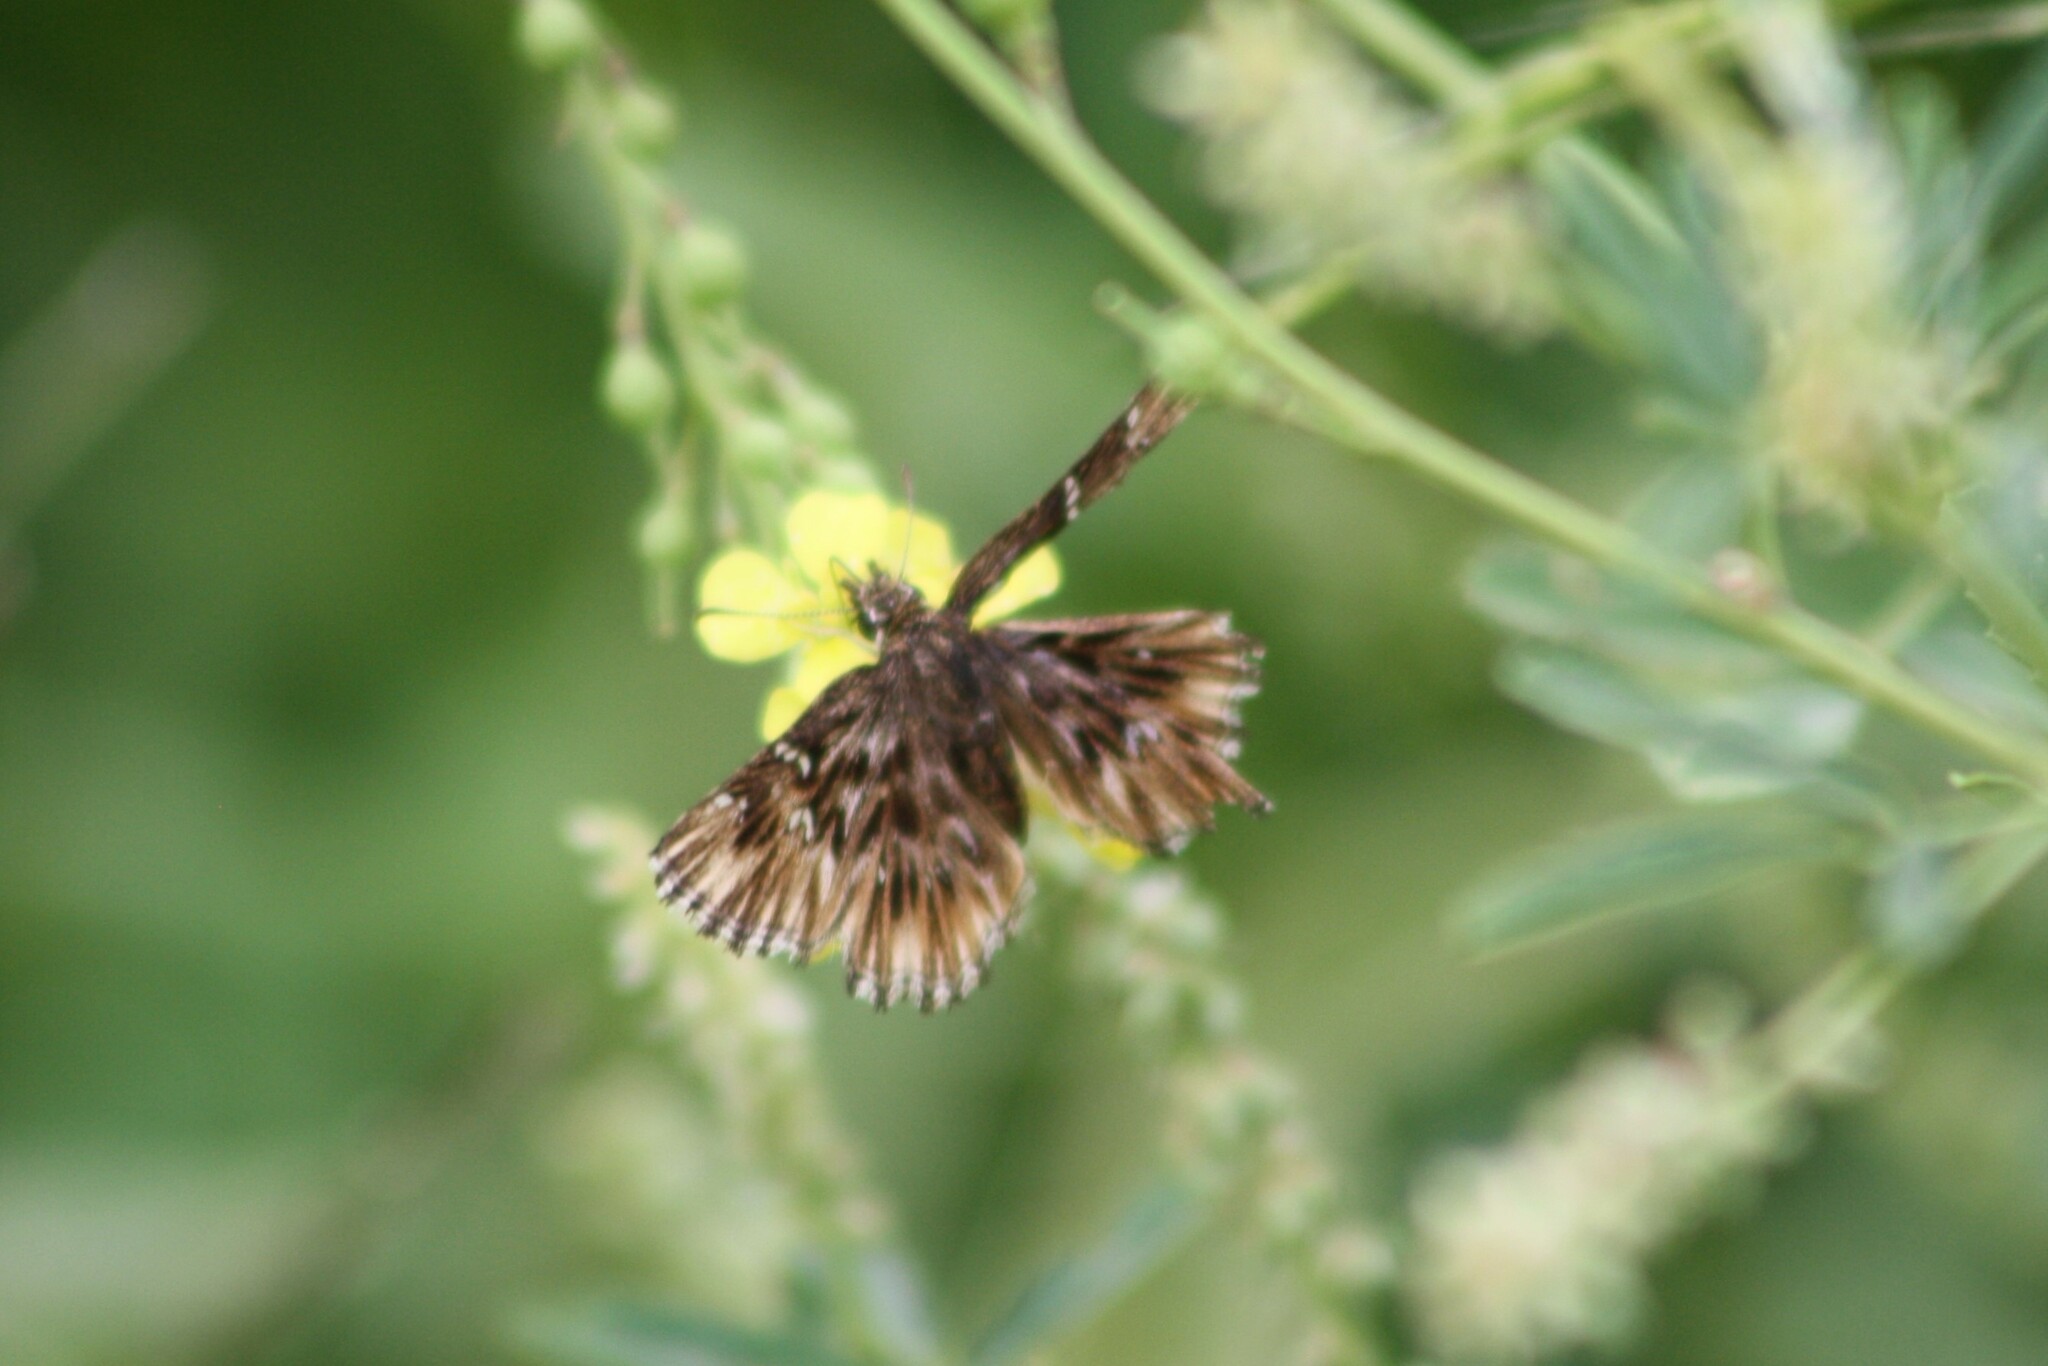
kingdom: Animalia
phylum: Arthropoda
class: Insecta
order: Lepidoptera
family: Hesperiidae
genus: Celotes
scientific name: Celotes nessus
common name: Common streaky-skipper
